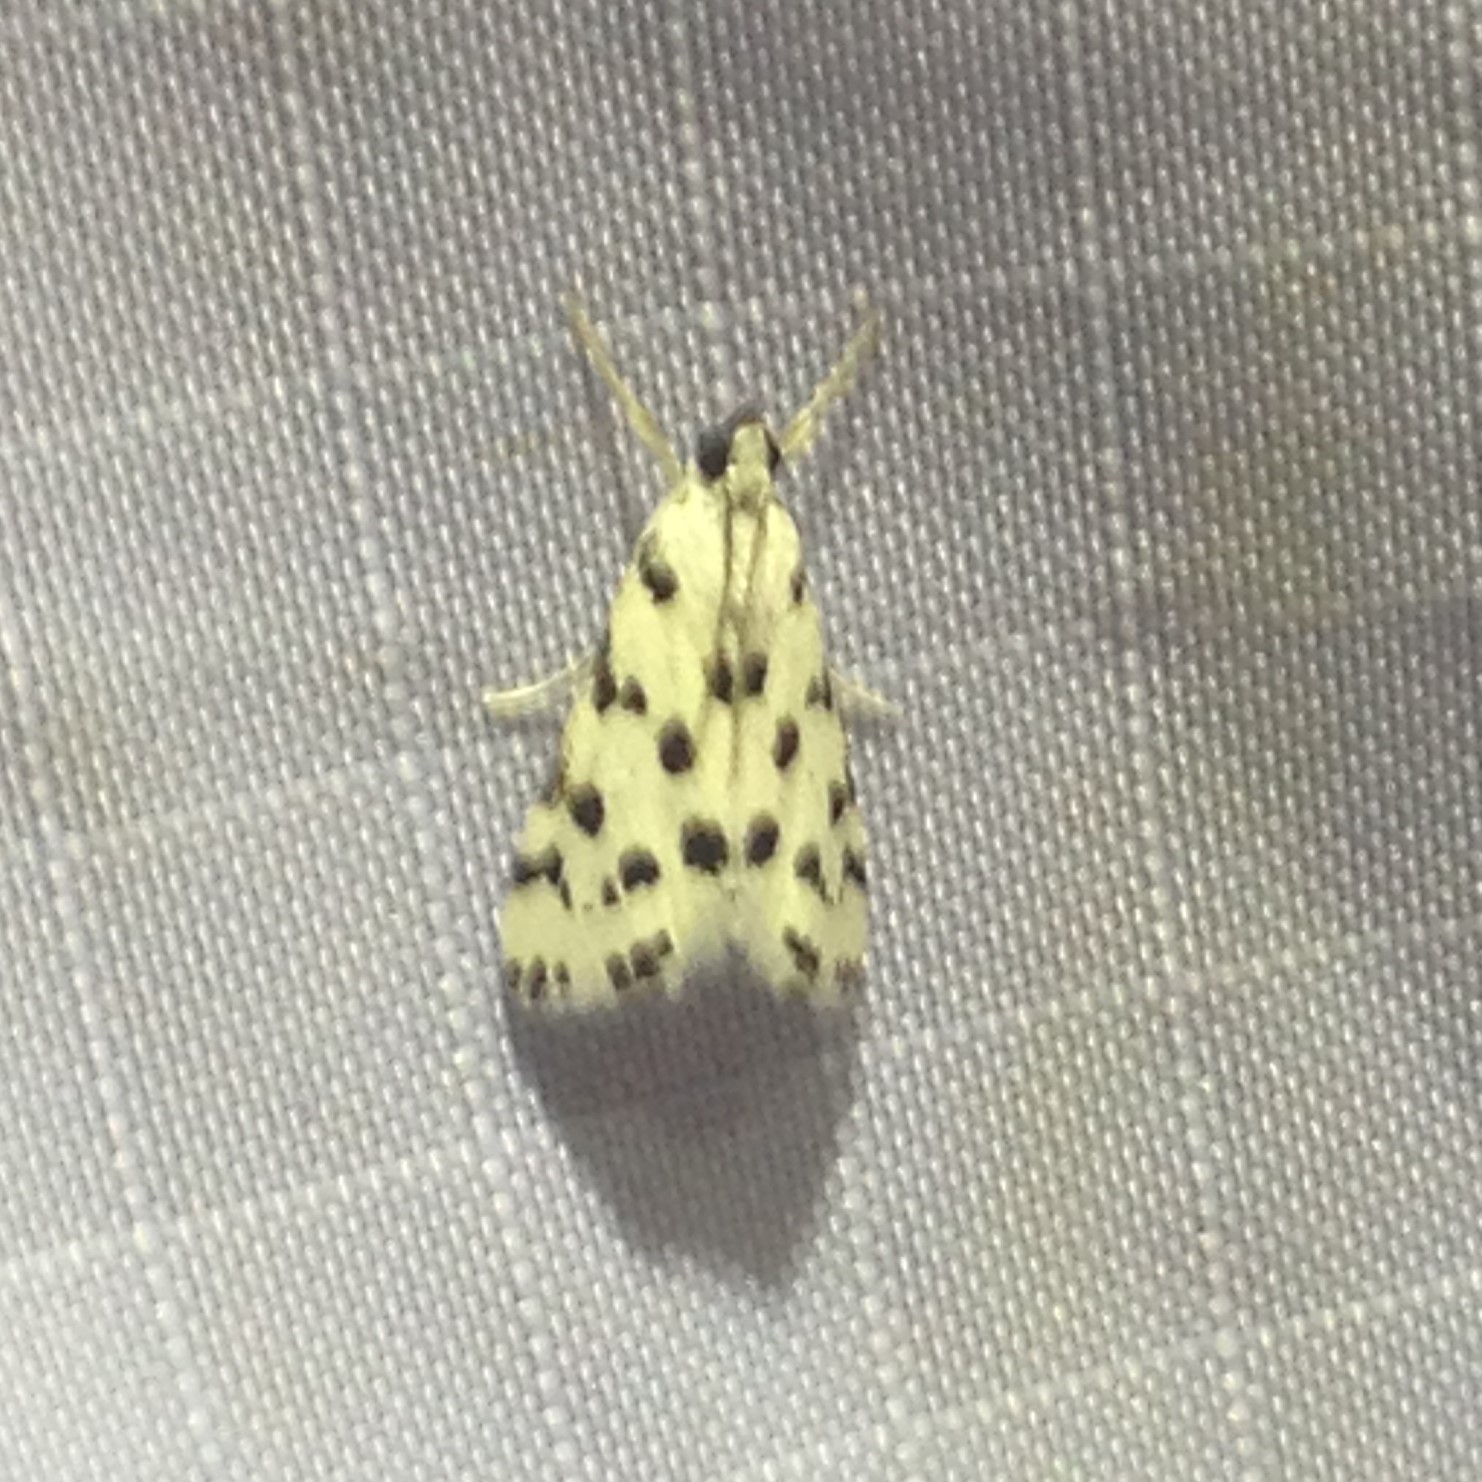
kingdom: Animalia
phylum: Arthropoda
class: Insecta
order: Lepidoptera
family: Crambidae
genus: Eustixia
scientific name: Eustixia pupula
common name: American cabbage pearl
